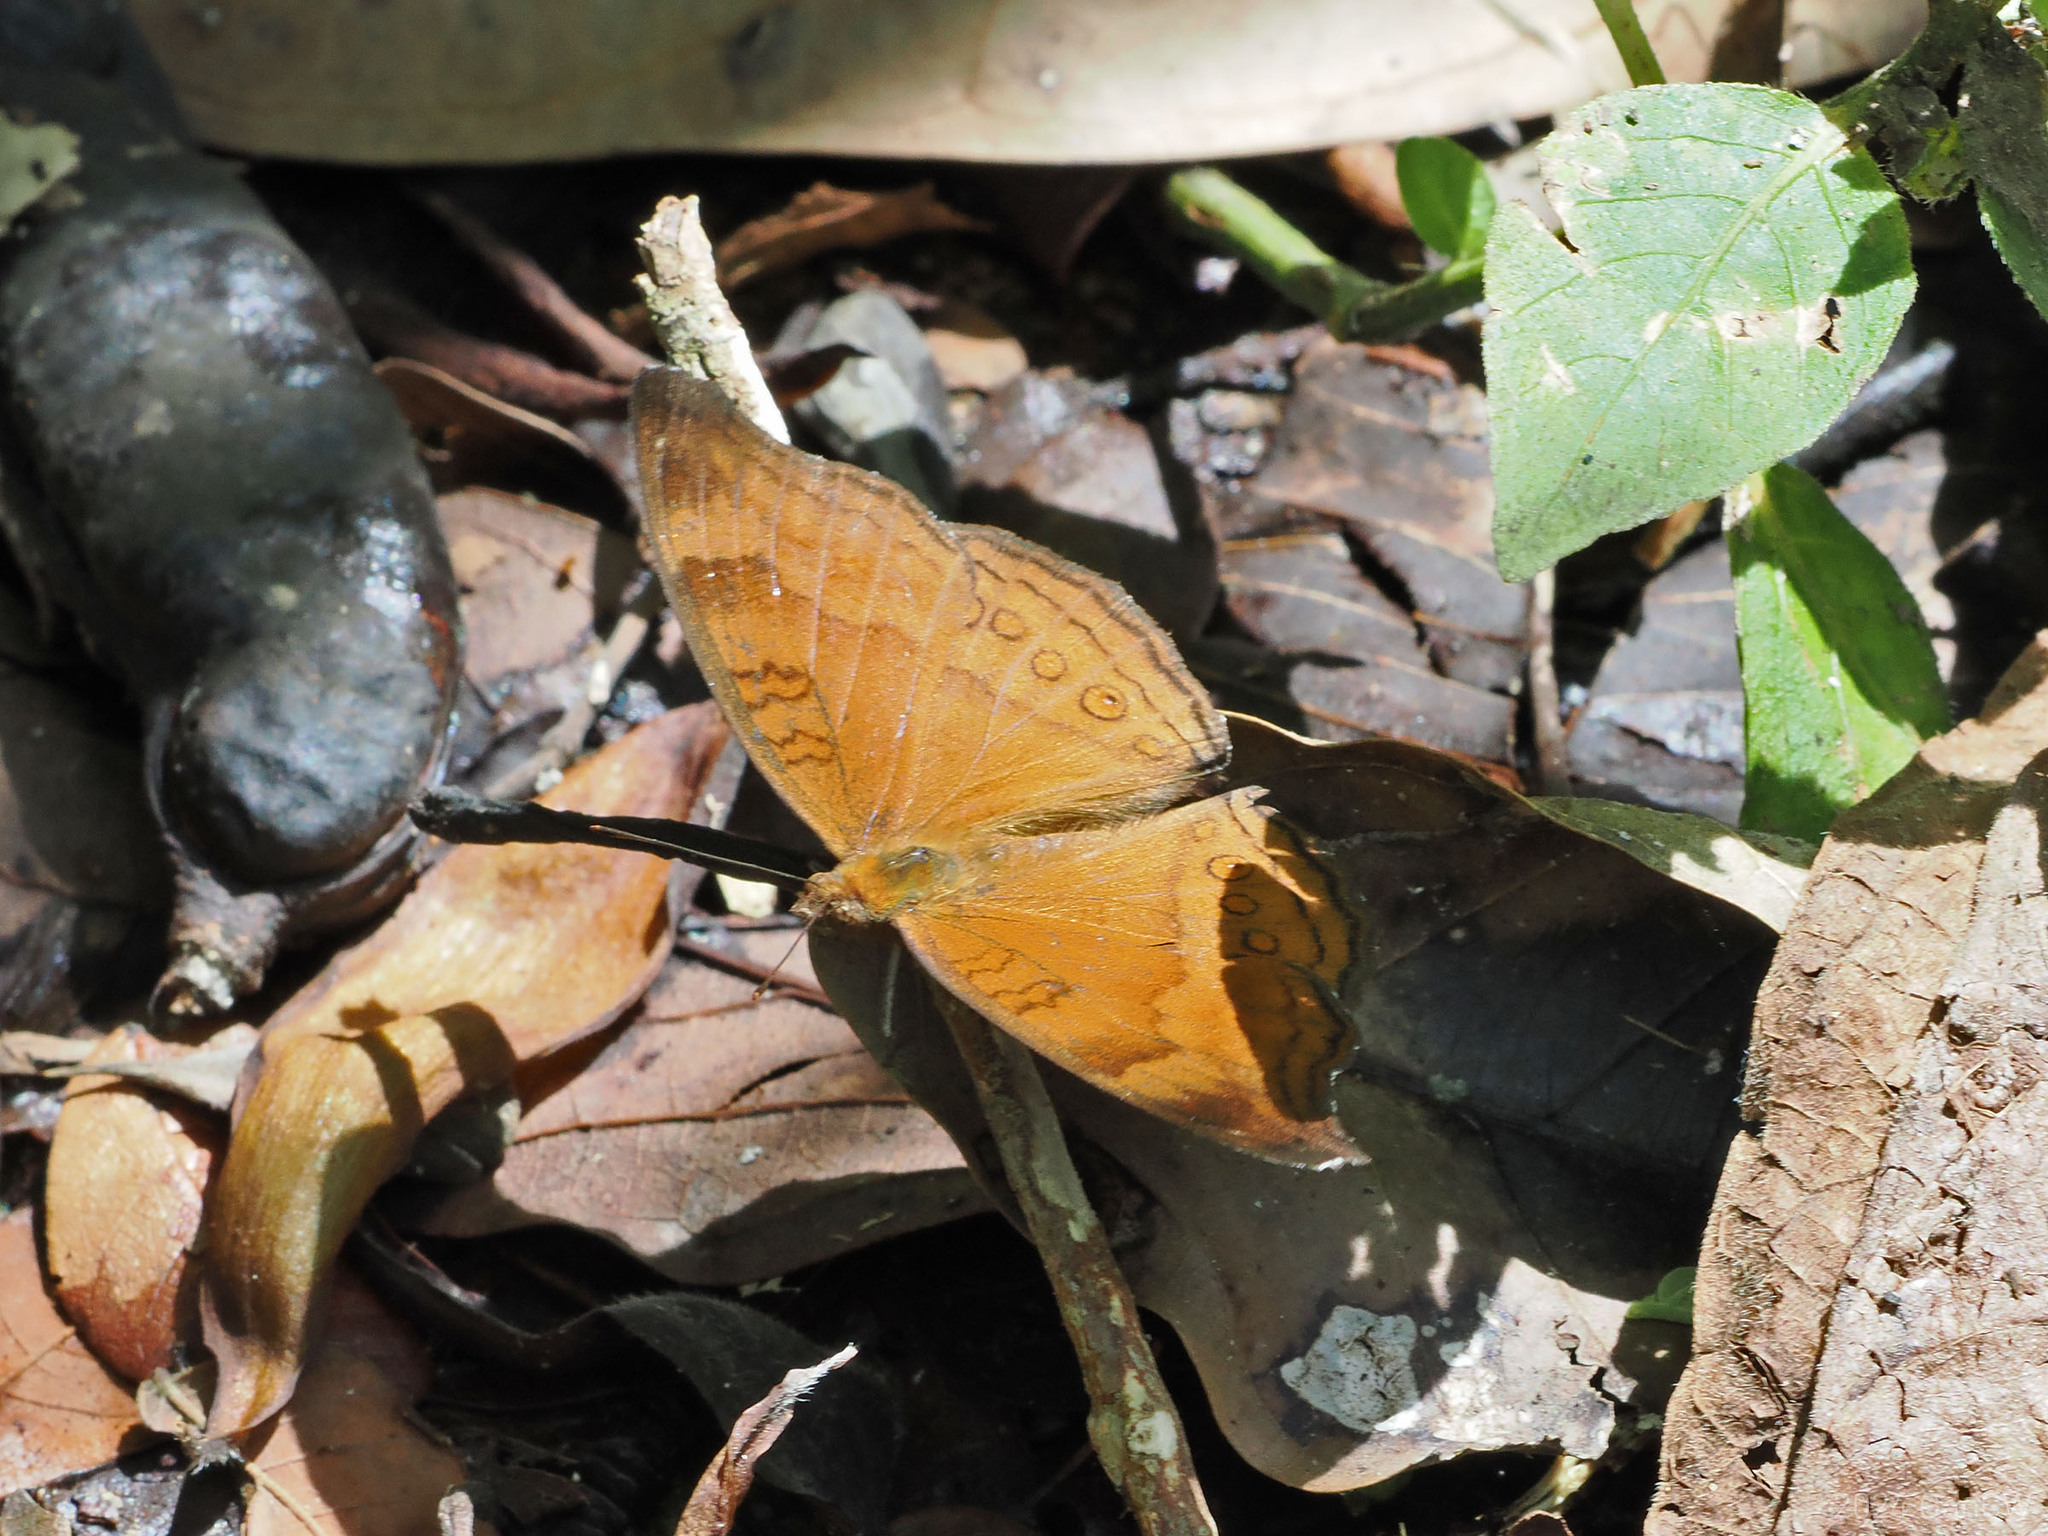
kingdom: Animalia
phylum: Arthropoda
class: Insecta
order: Lepidoptera
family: Nymphalidae
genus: Junonia
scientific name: Junonia hedonia
